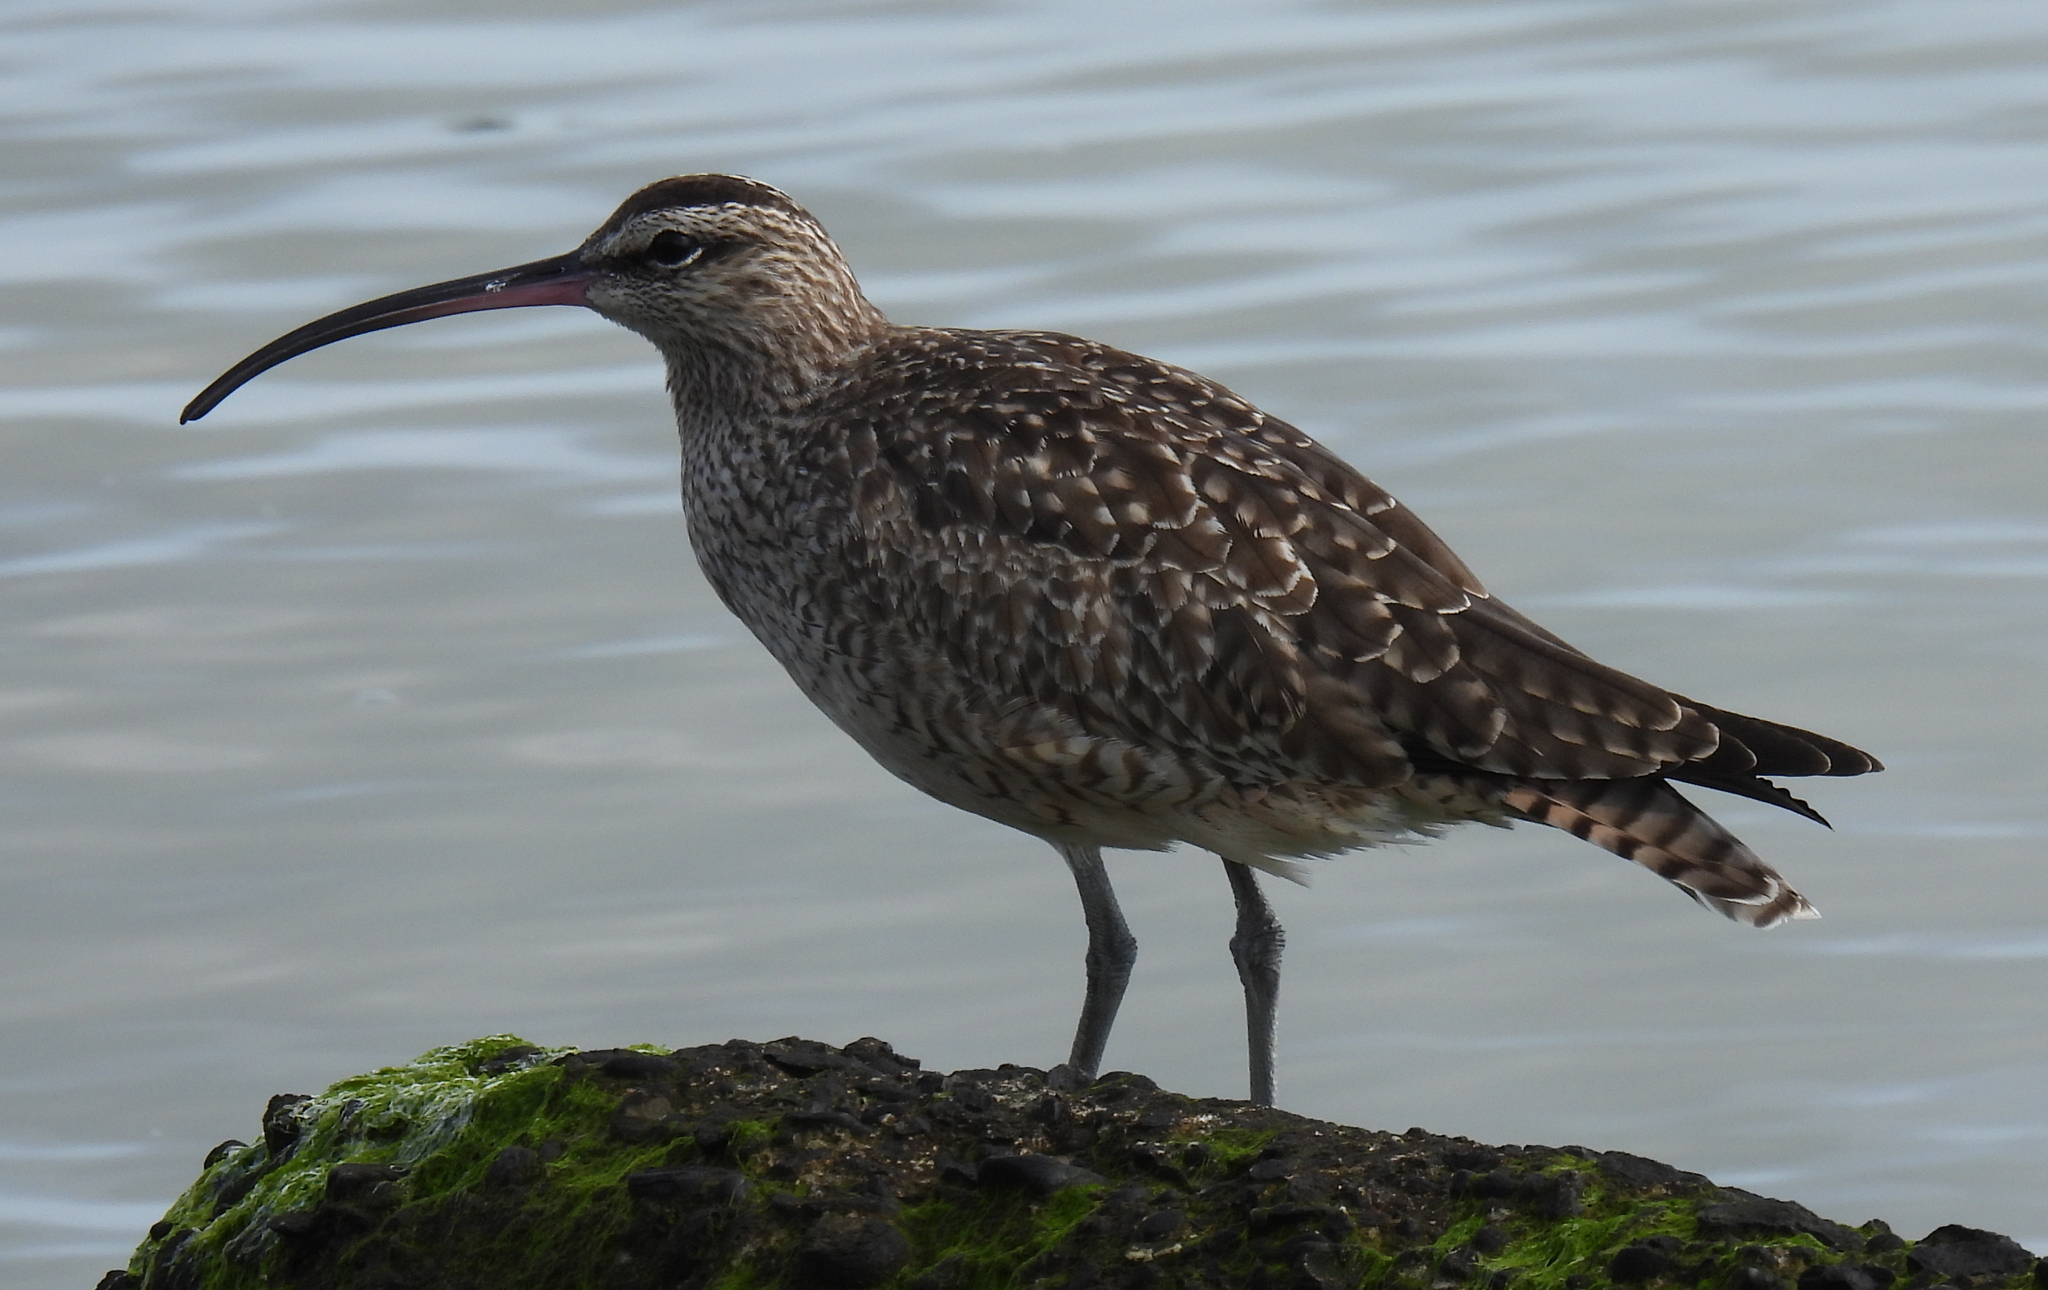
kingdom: Animalia
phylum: Chordata
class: Aves
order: Charadriiformes
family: Scolopacidae
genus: Numenius
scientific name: Numenius phaeopus
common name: Whimbrel
